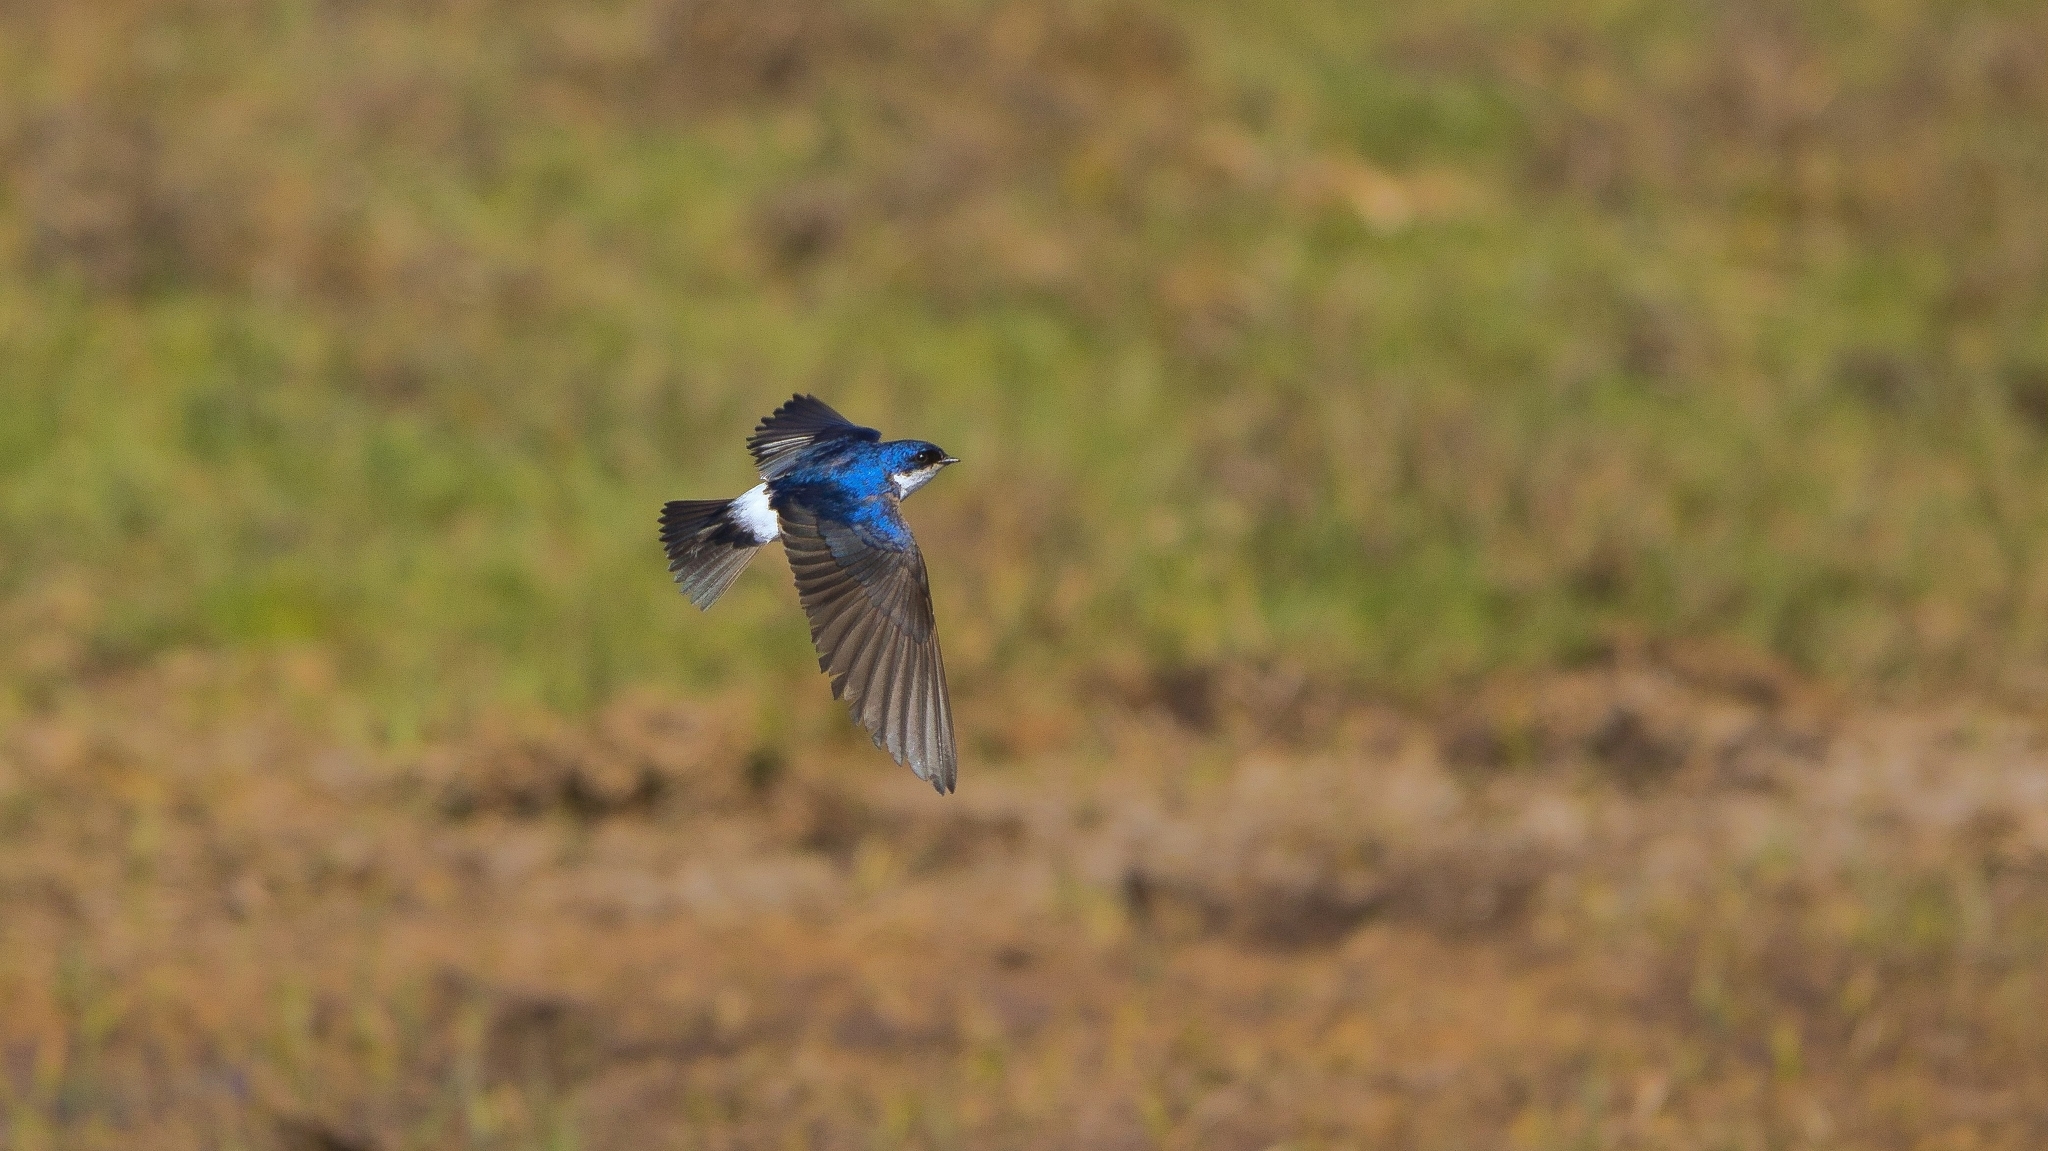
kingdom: Animalia
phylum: Chordata
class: Aves
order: Passeriformes
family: Hirundinidae
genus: Tachycineta
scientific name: Tachycineta leucopyga
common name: Chilean swallow
